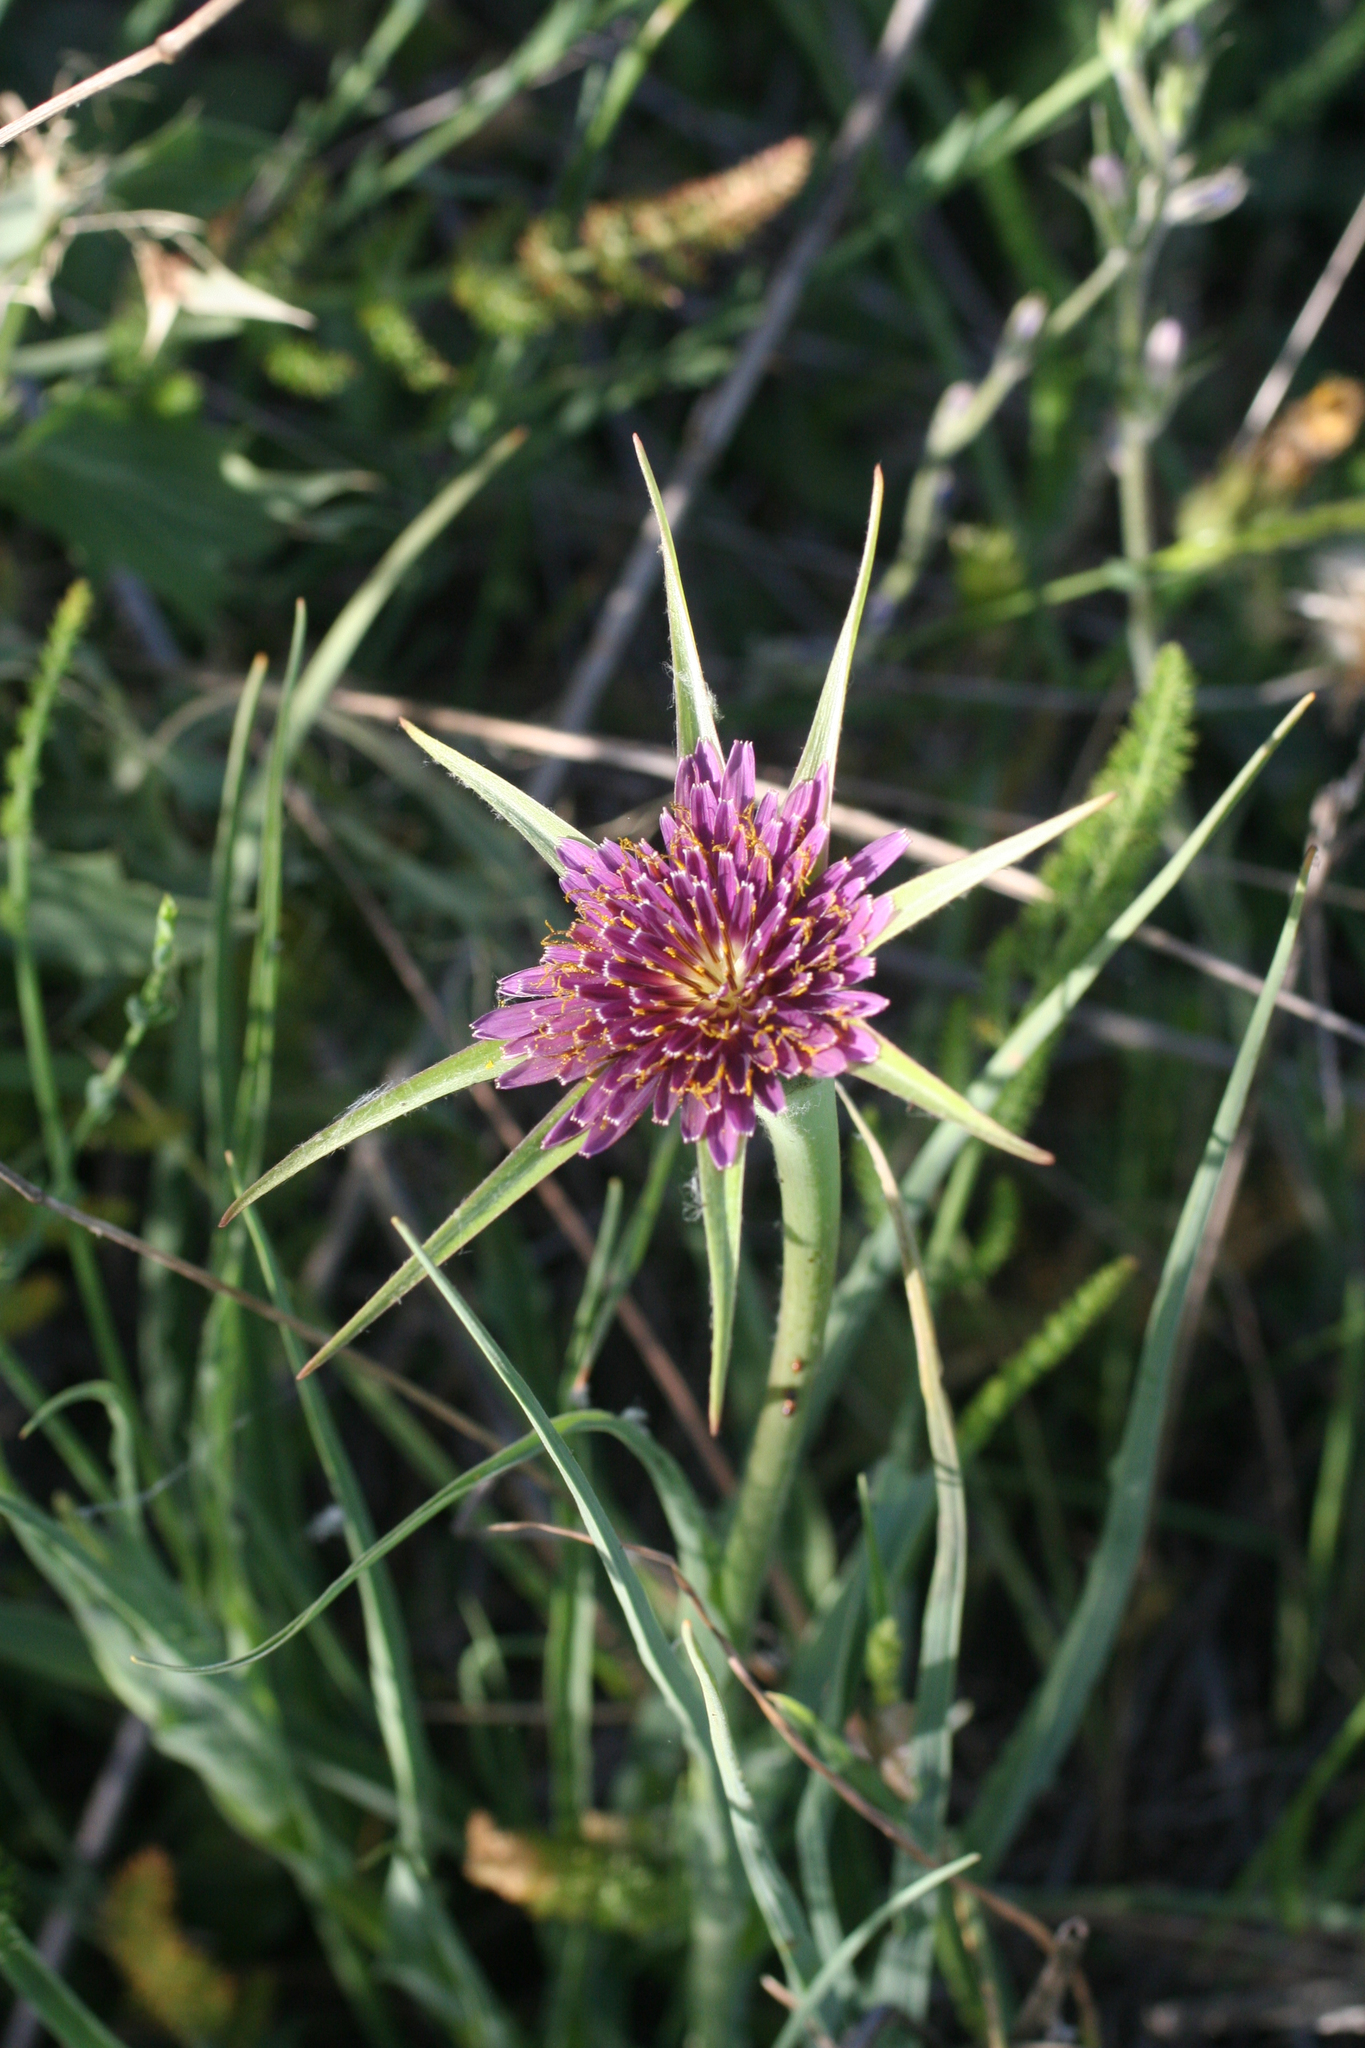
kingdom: Plantae
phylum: Tracheophyta
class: Magnoliopsida
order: Asterales
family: Asteraceae
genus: Tragopogon
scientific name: Tragopogon porrifolius
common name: Salsify
